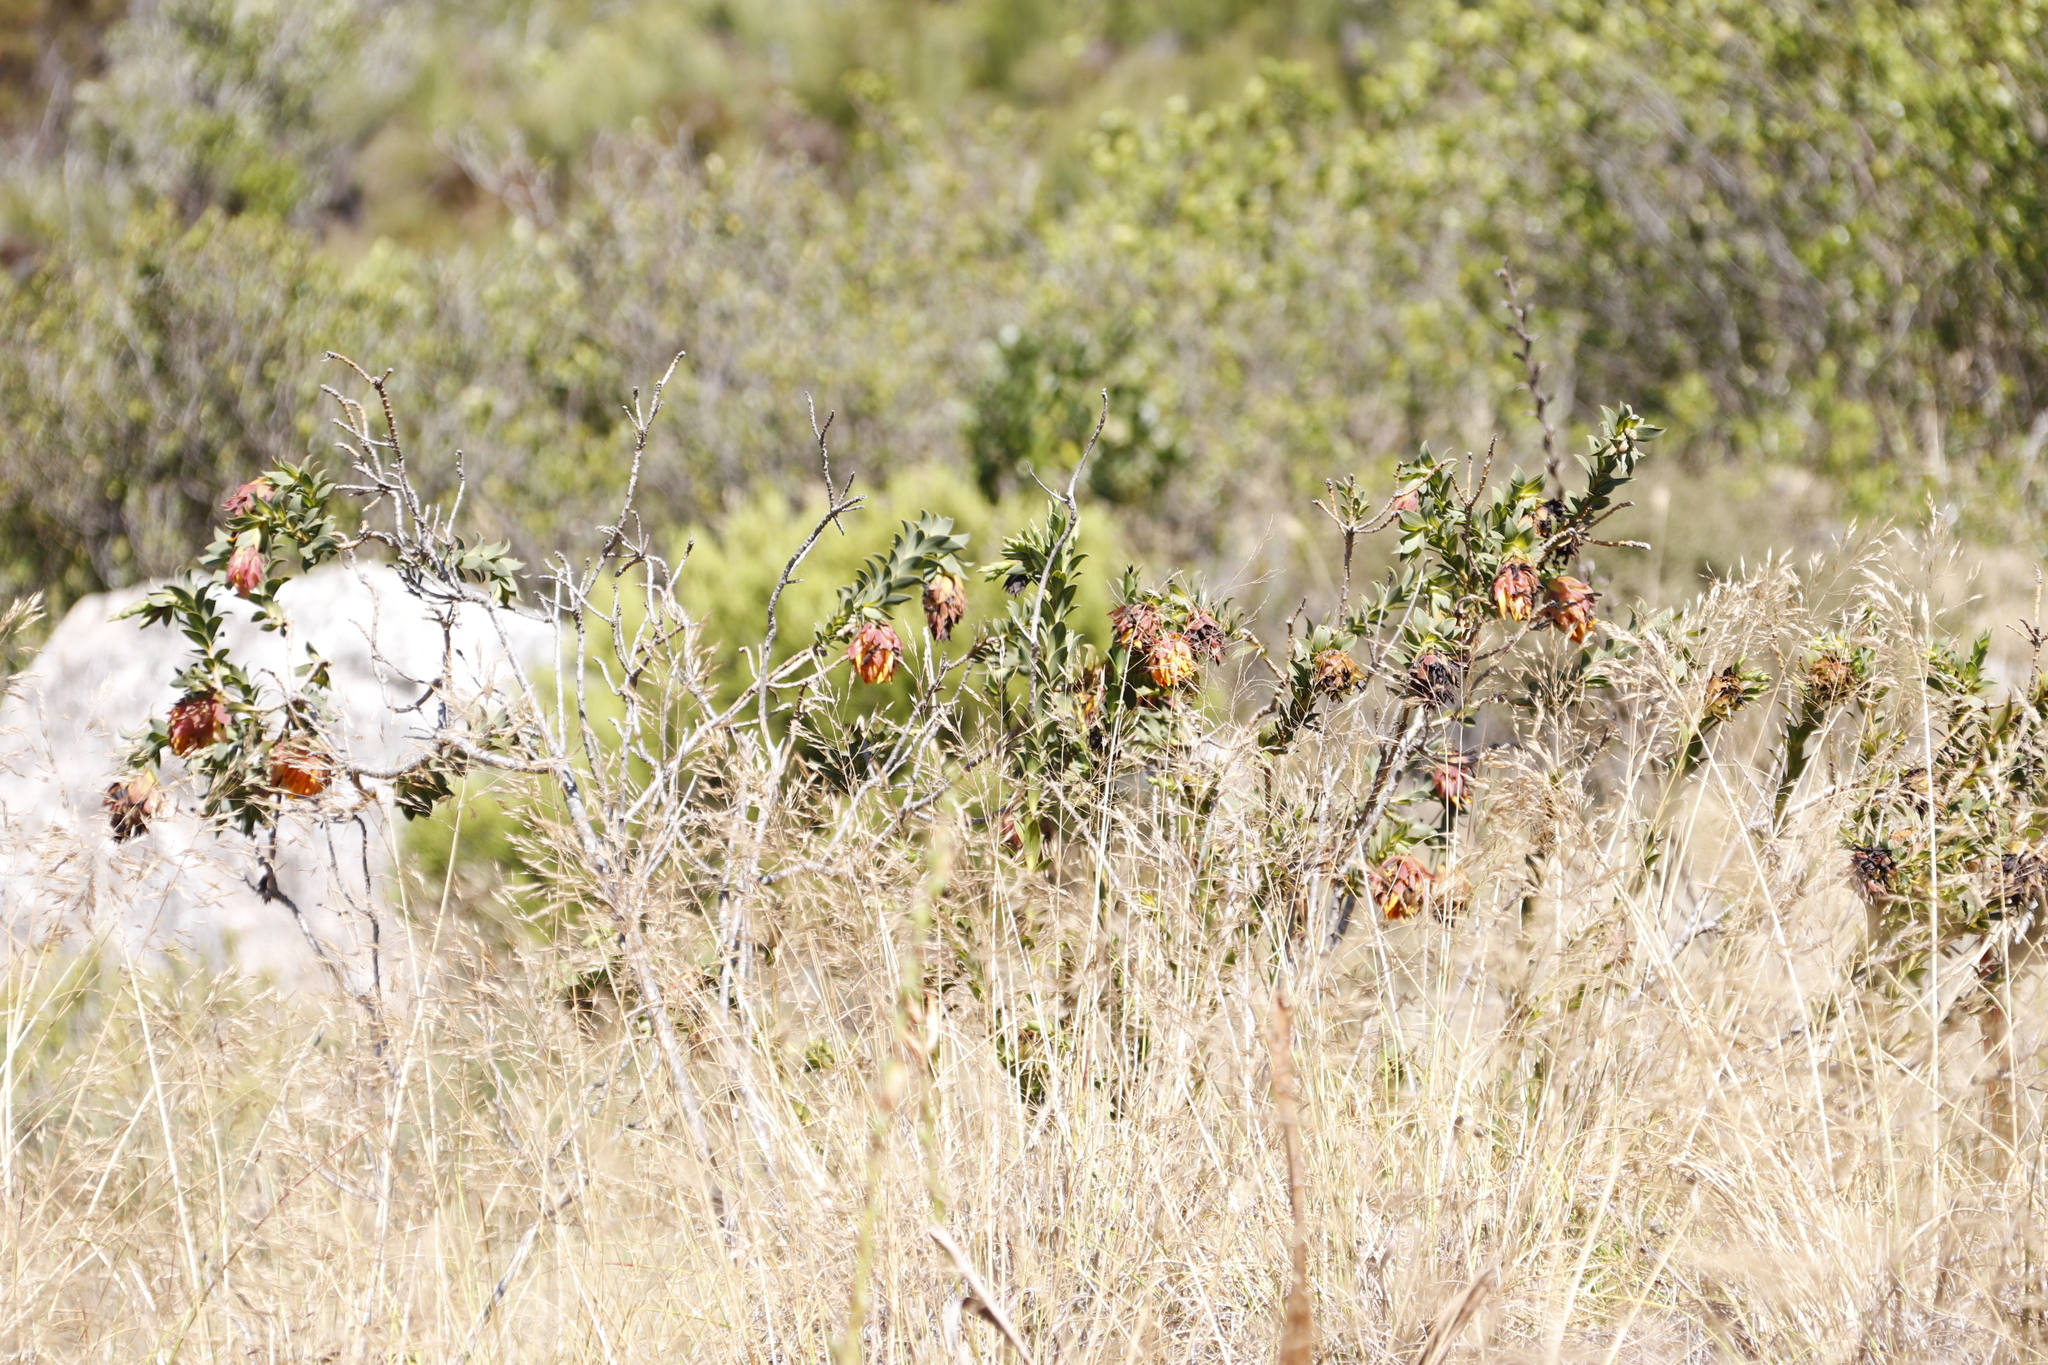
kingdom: Plantae
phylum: Tracheophyta
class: Magnoliopsida
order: Fabales
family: Fabaceae
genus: Liparia
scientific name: Liparia splendens
